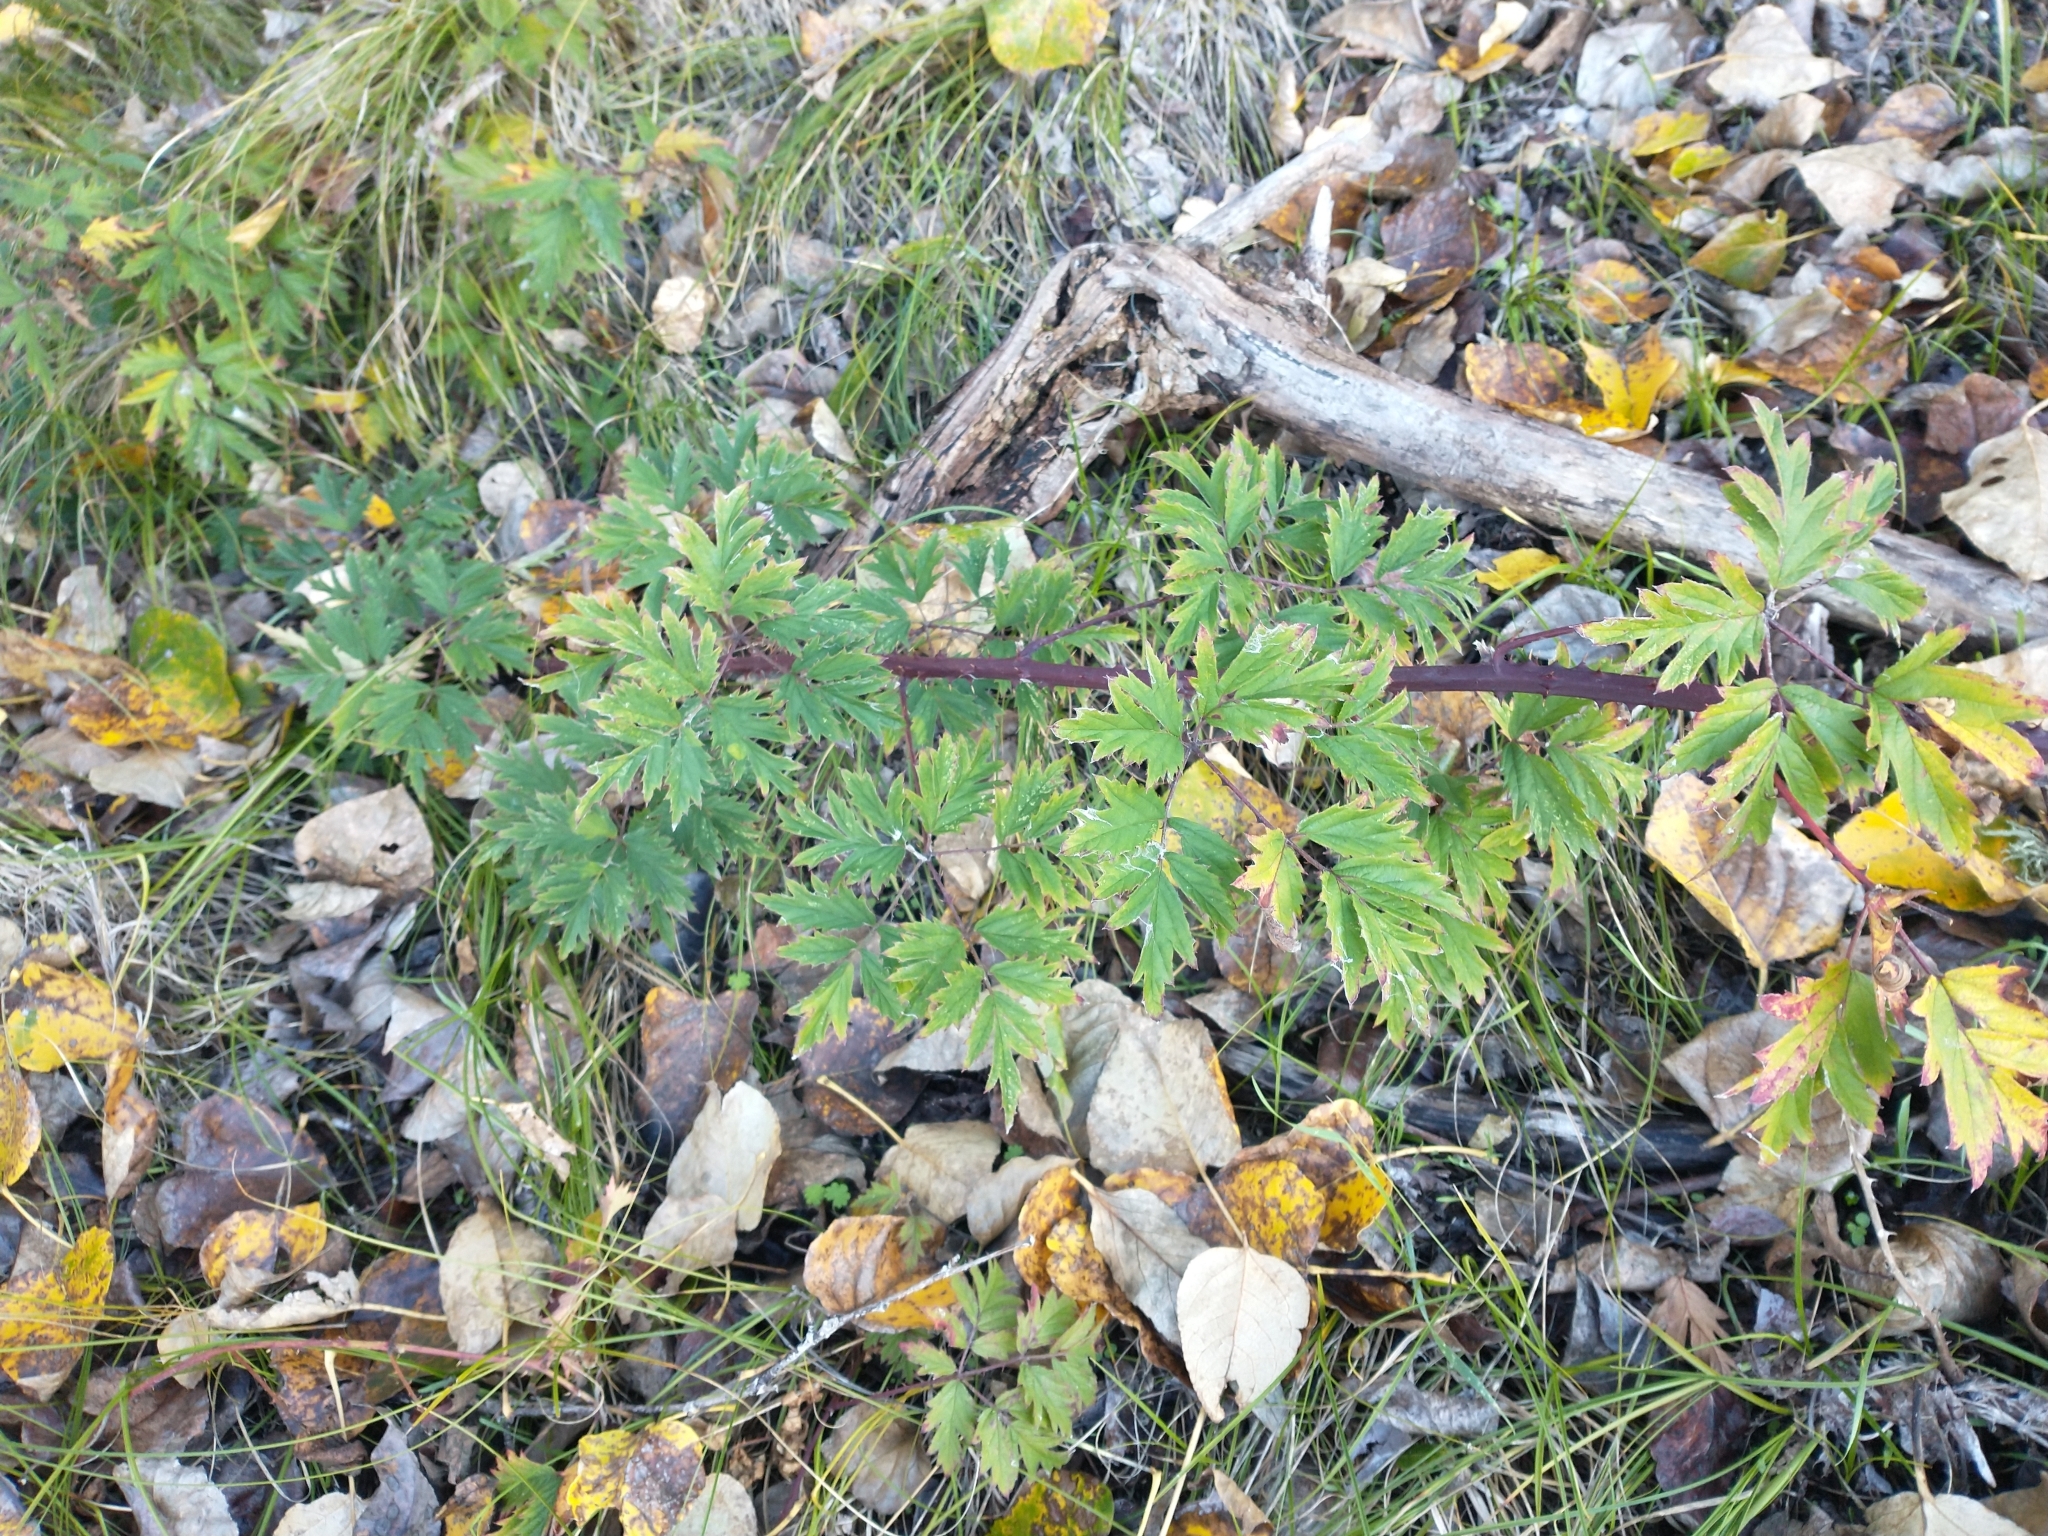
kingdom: Plantae
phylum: Tracheophyta
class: Magnoliopsida
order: Rosales
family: Rosaceae
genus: Rubus
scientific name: Rubus laciniatus
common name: Evergreen blackberry
